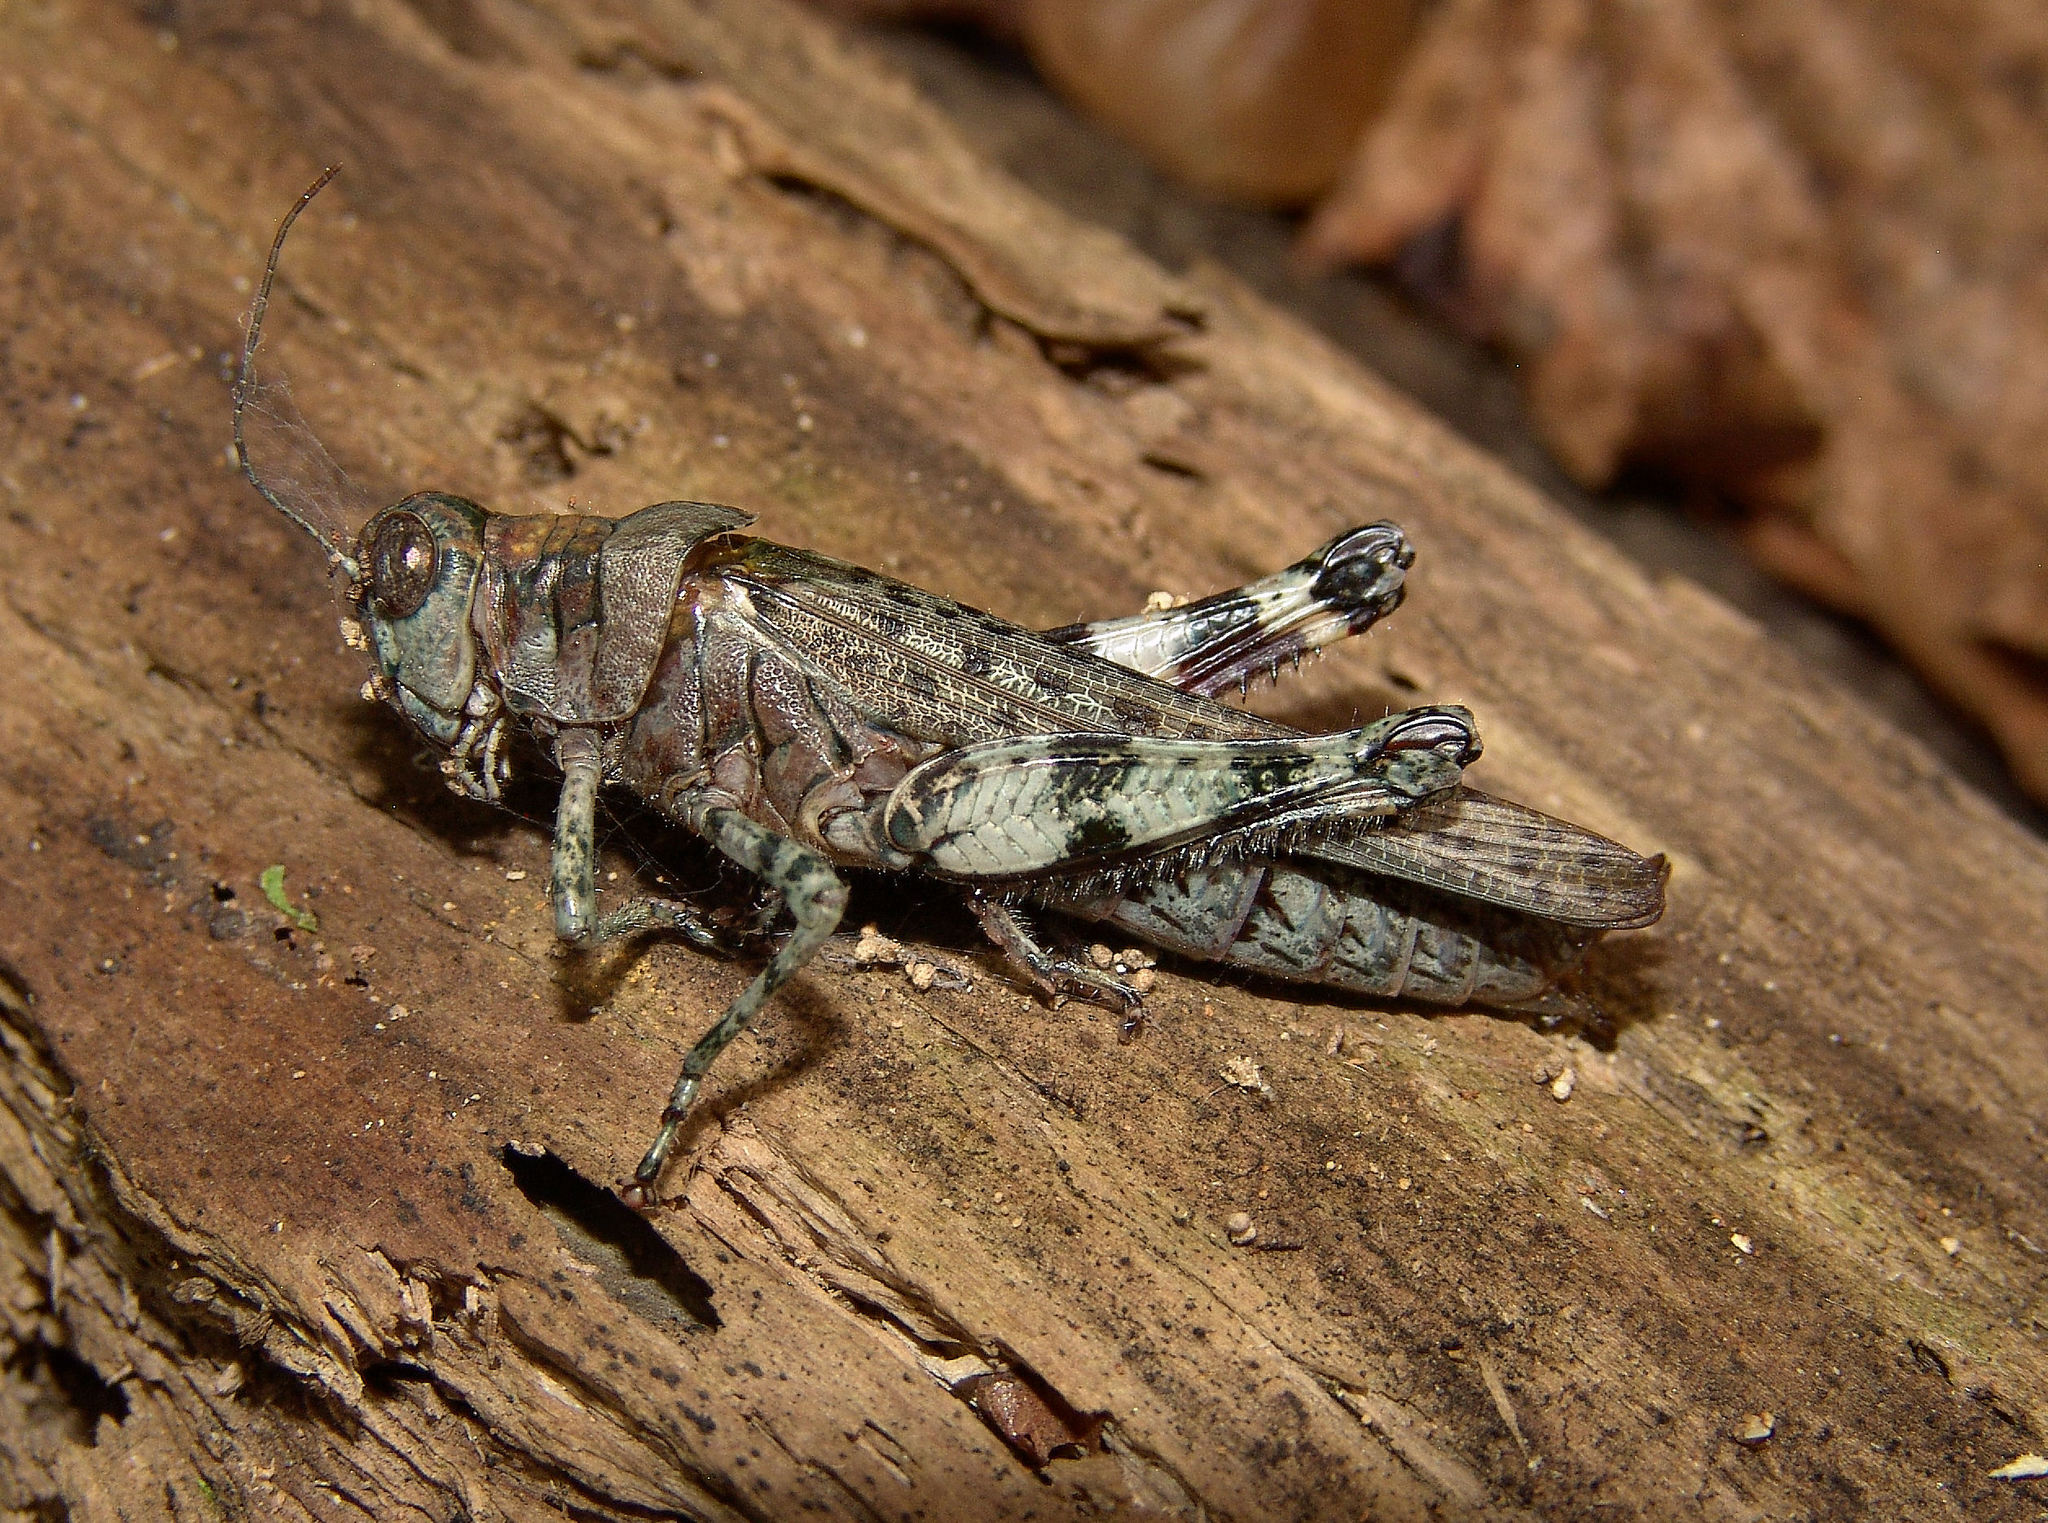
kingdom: Animalia
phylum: Arthropoda
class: Insecta
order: Orthoptera
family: Acrididae
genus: Melanoplus
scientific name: Melanoplus punctulatus
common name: Pine-tree spur-throat grasshopper
